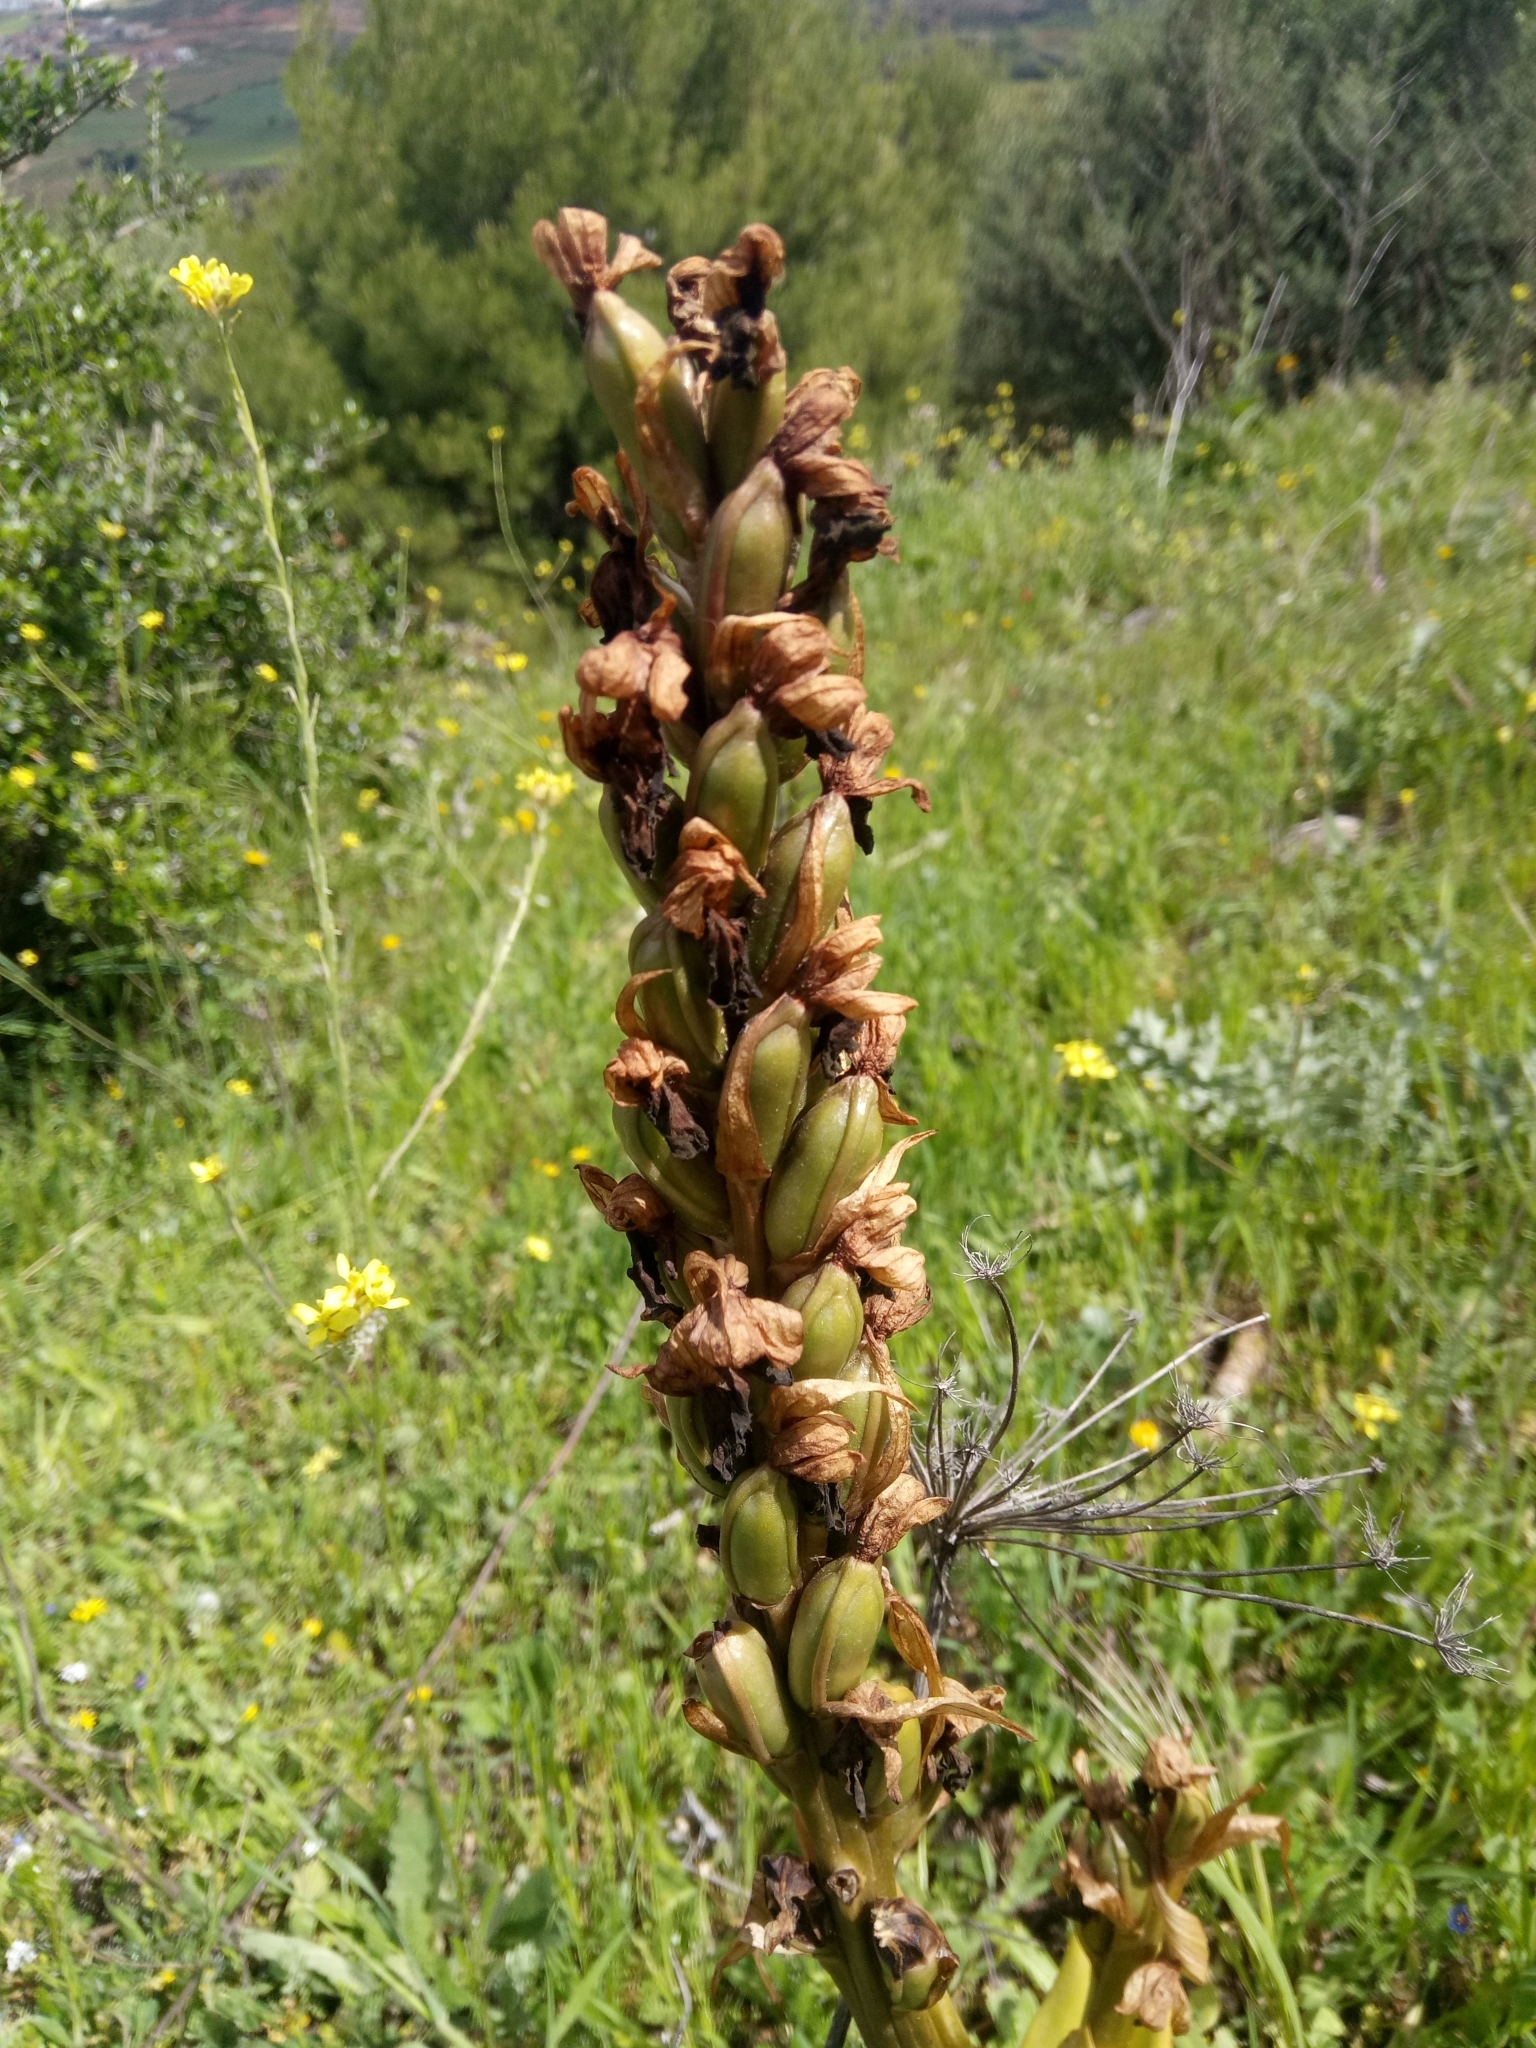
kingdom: Plantae
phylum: Tracheophyta
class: Liliopsida
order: Asparagales
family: Orchidaceae
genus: Himantoglossum
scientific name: Himantoglossum robertianum
